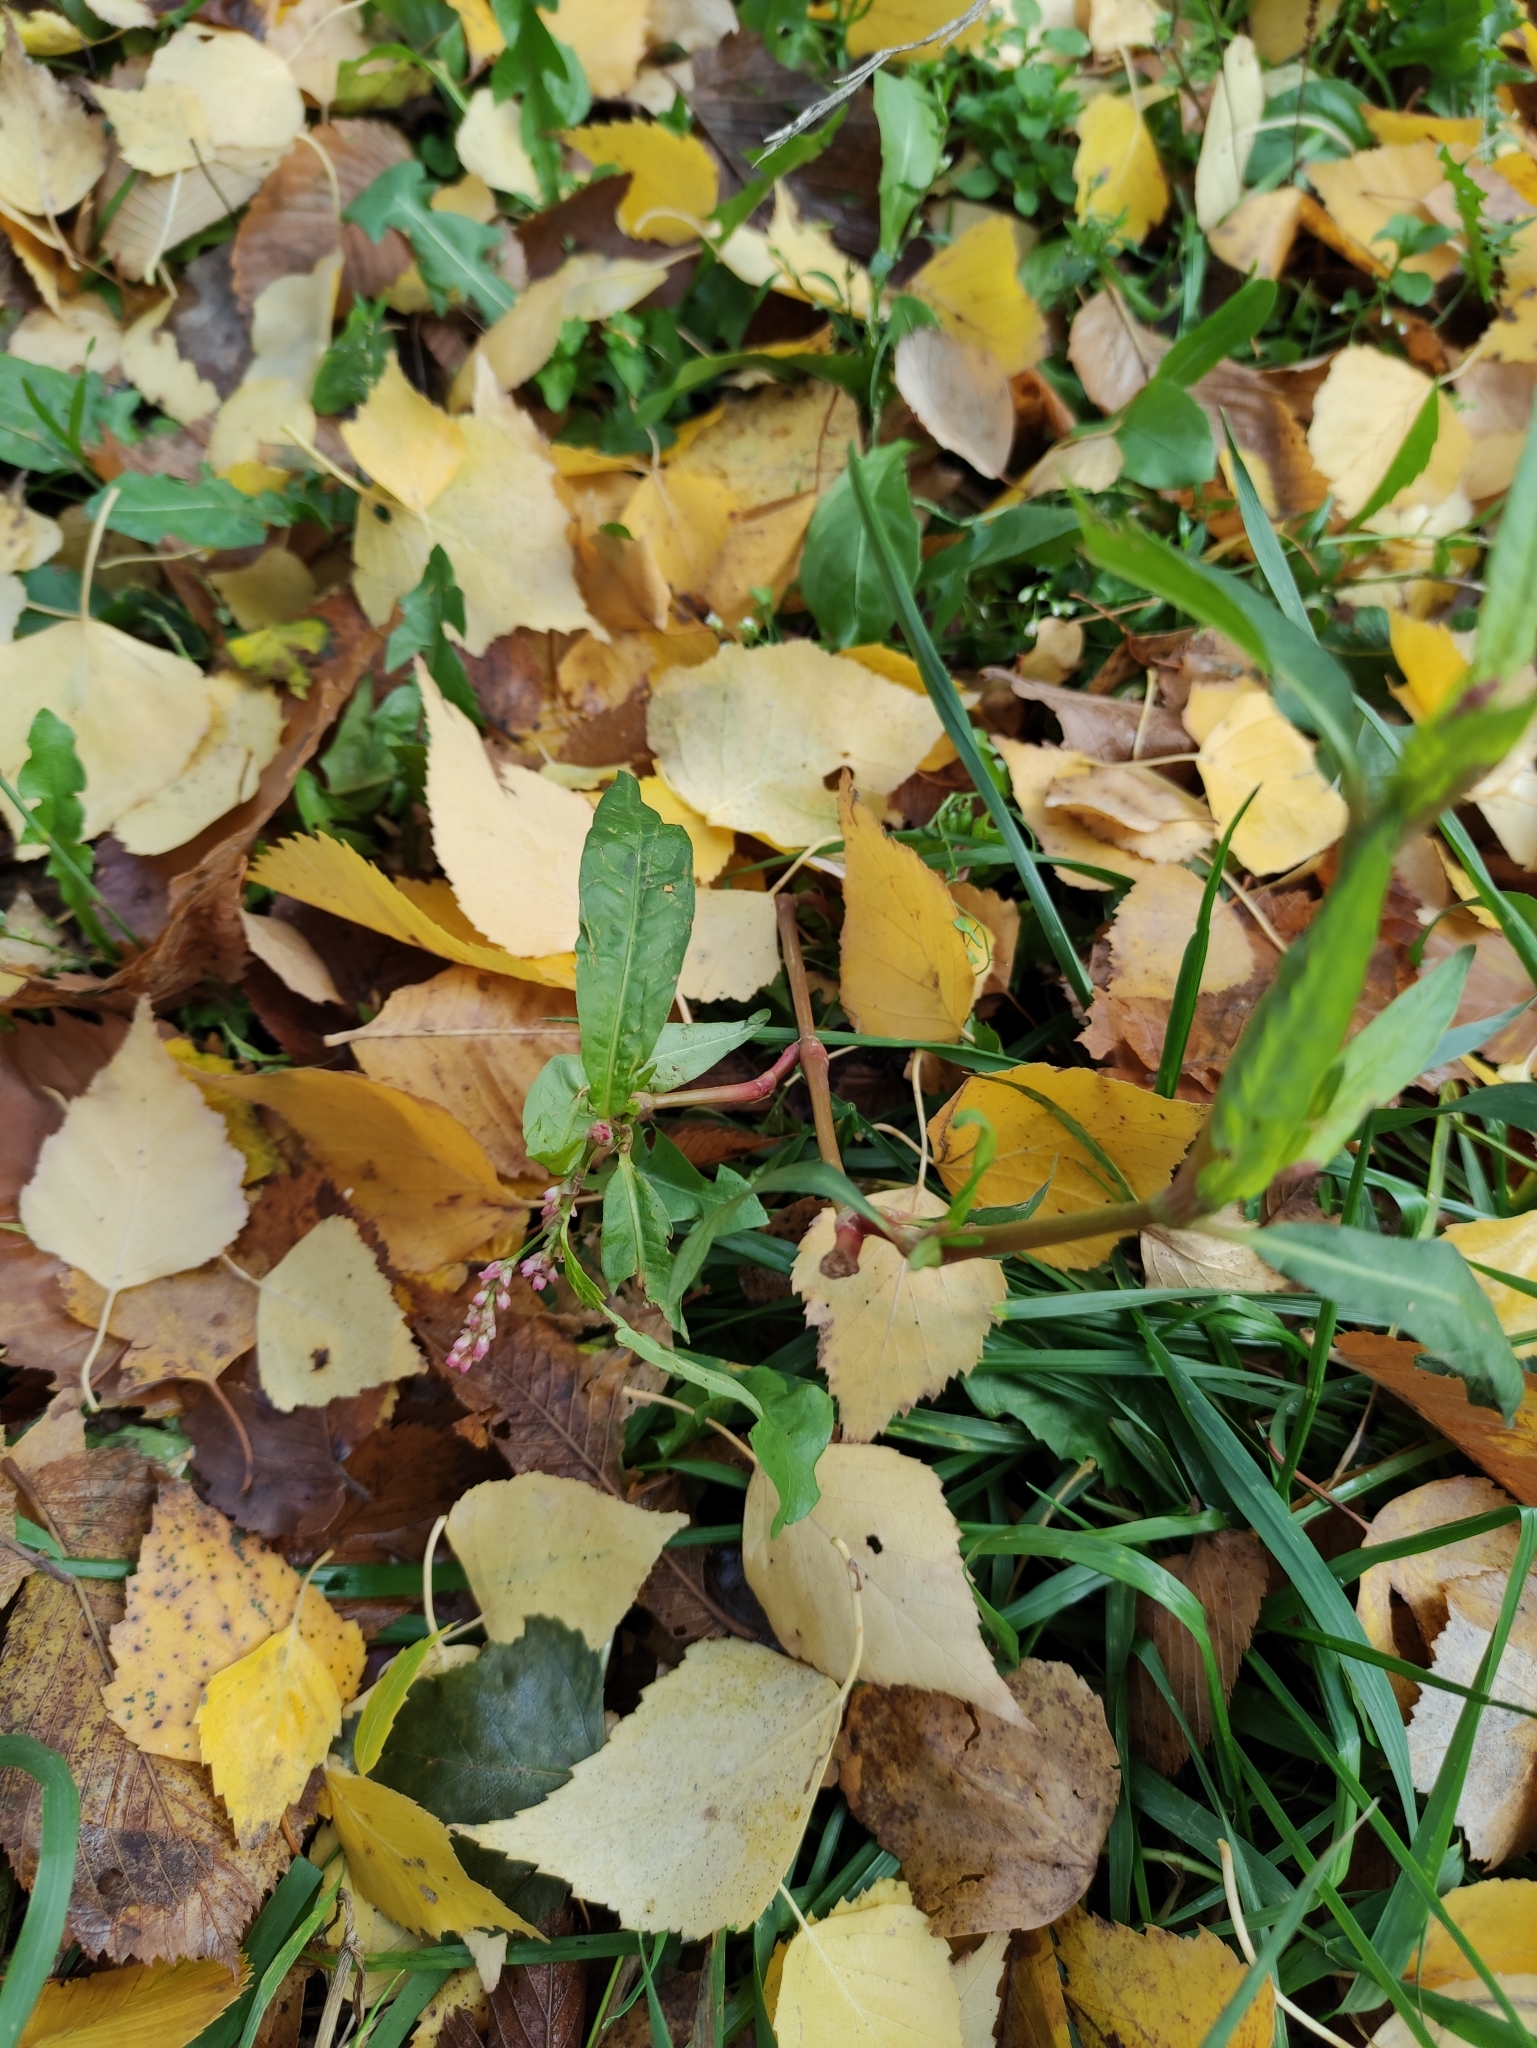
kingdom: Plantae
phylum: Tracheophyta
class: Magnoliopsida
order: Caryophyllales
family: Polygonaceae
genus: Persicaria
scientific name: Persicaria maculosa
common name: Redshank
